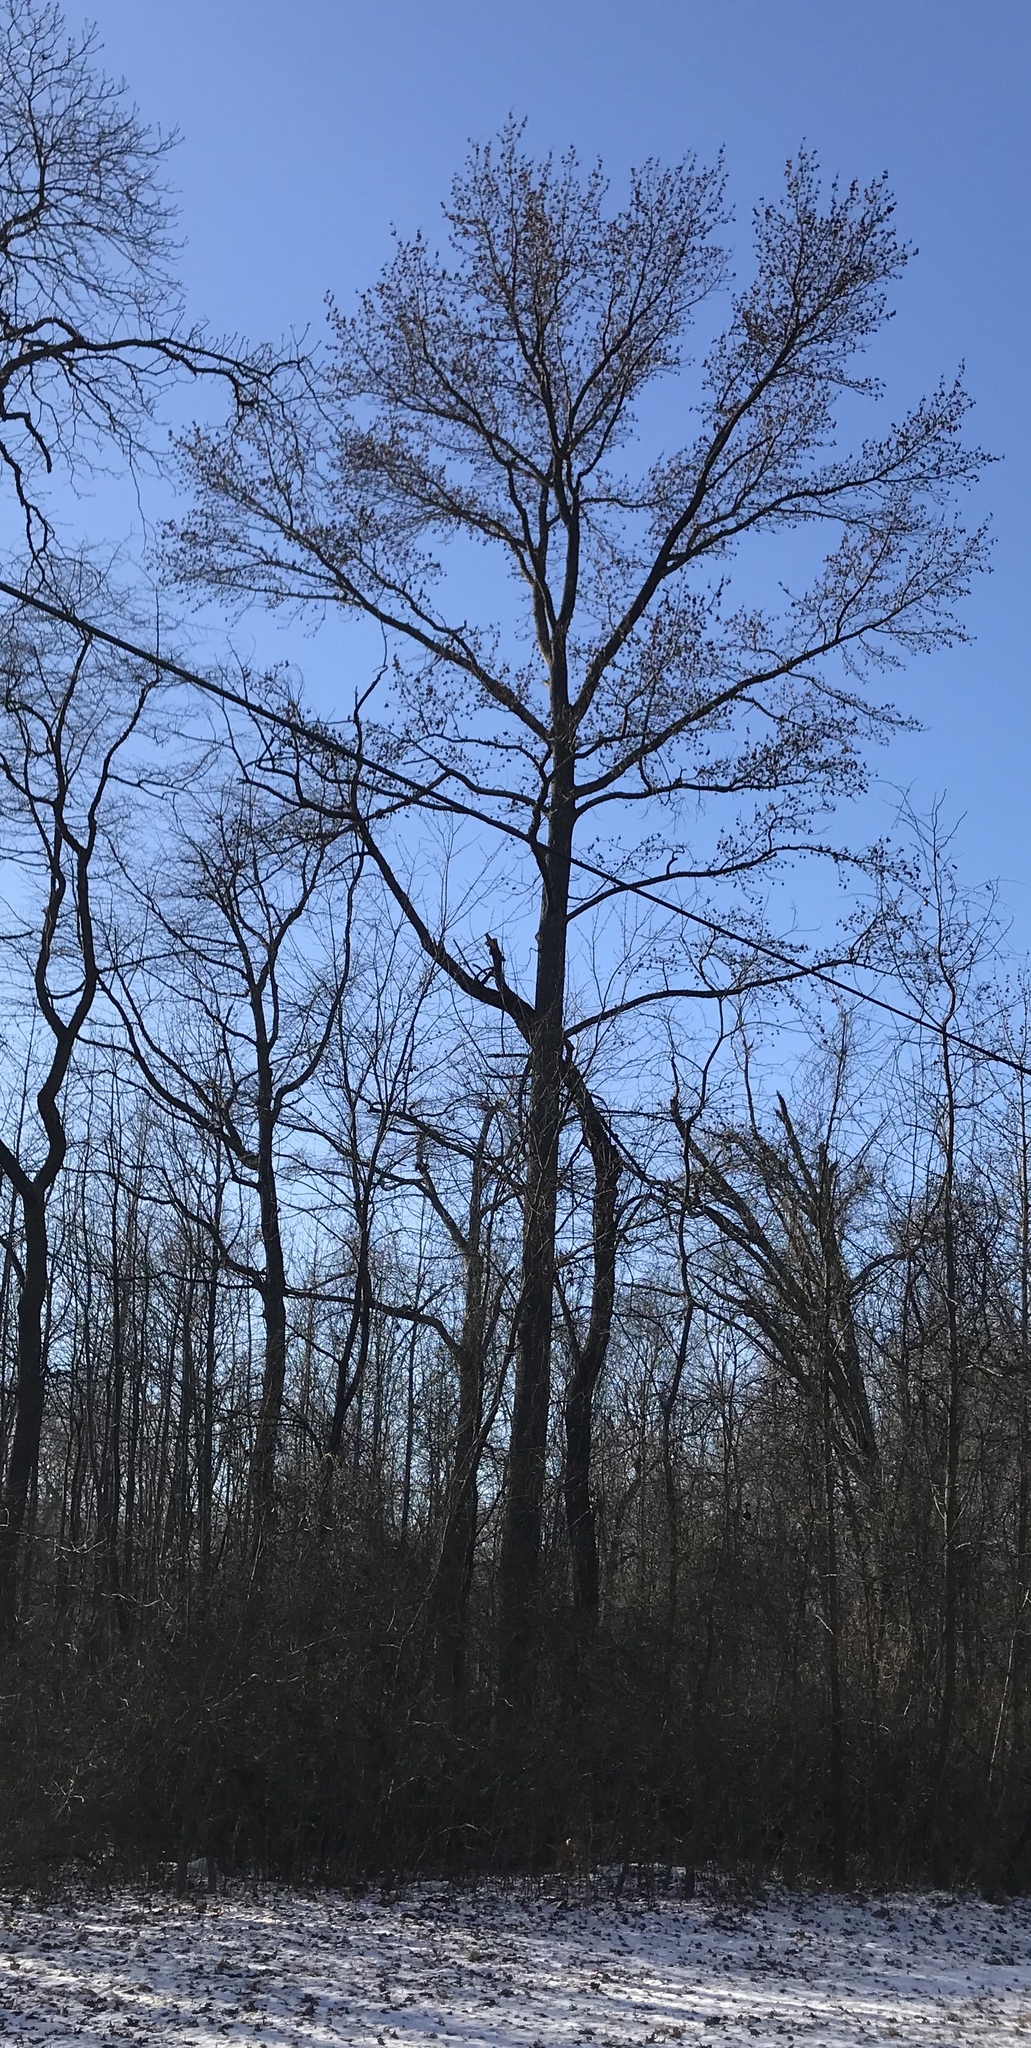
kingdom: Plantae
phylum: Tracheophyta
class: Magnoliopsida
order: Saxifragales
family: Altingiaceae
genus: Liquidambar
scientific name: Liquidambar styraciflua
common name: Sweet gum
